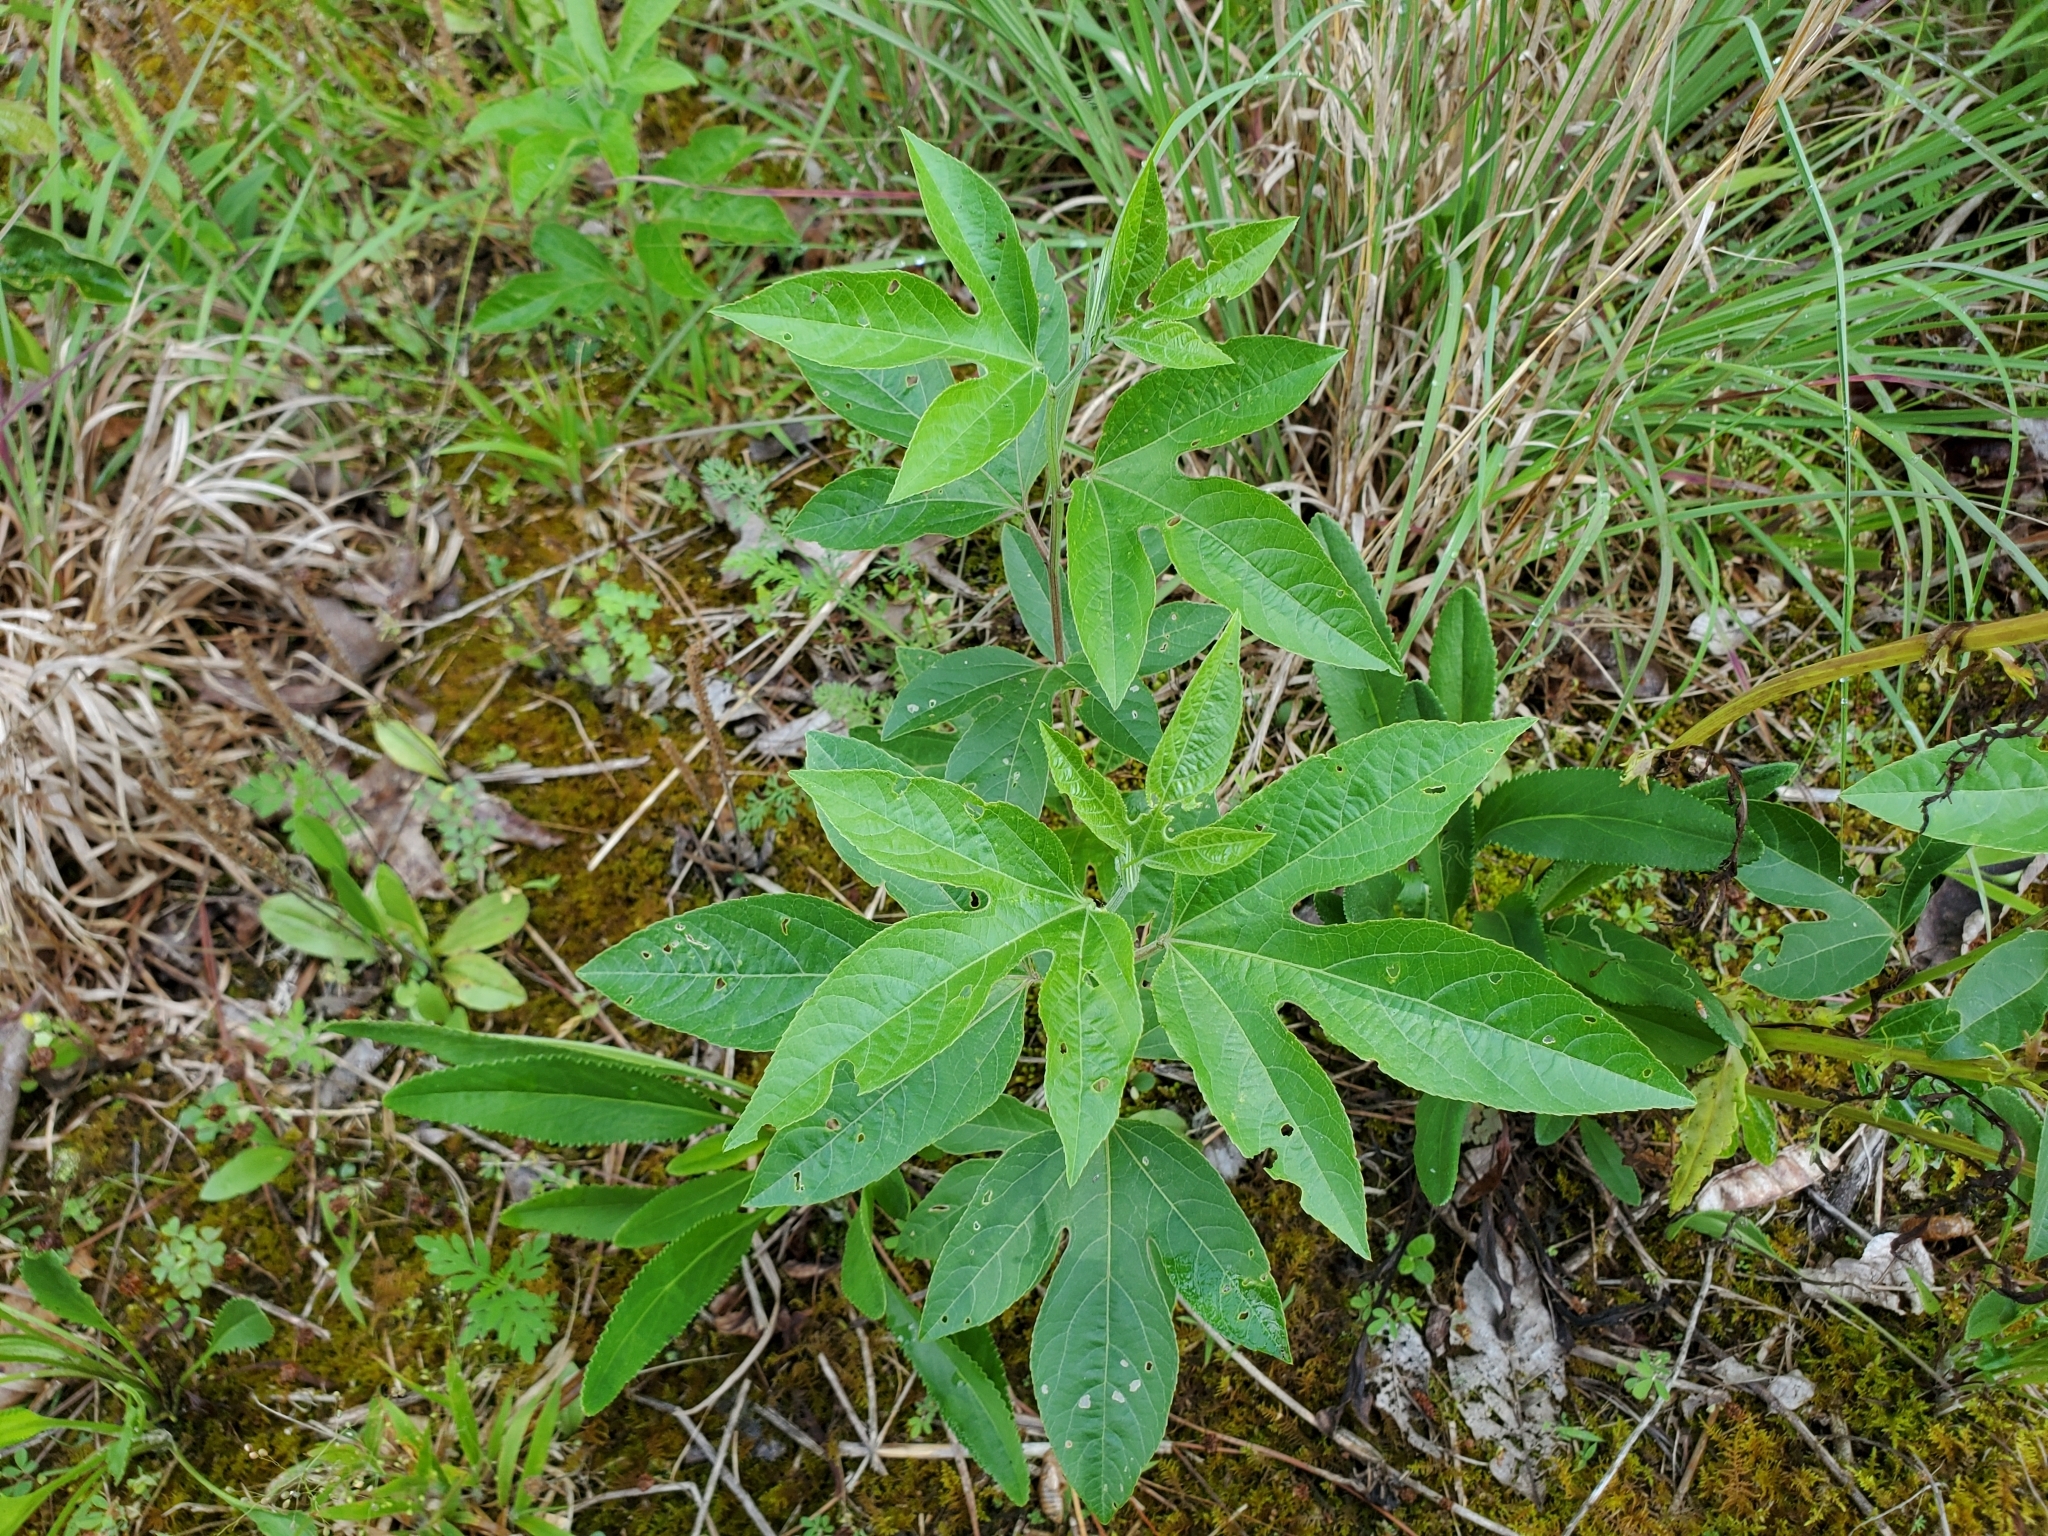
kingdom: Plantae
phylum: Tracheophyta
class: Magnoliopsida
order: Malpighiales
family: Passifloraceae
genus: Passiflora
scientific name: Passiflora incarnata
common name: Apricot-vine
